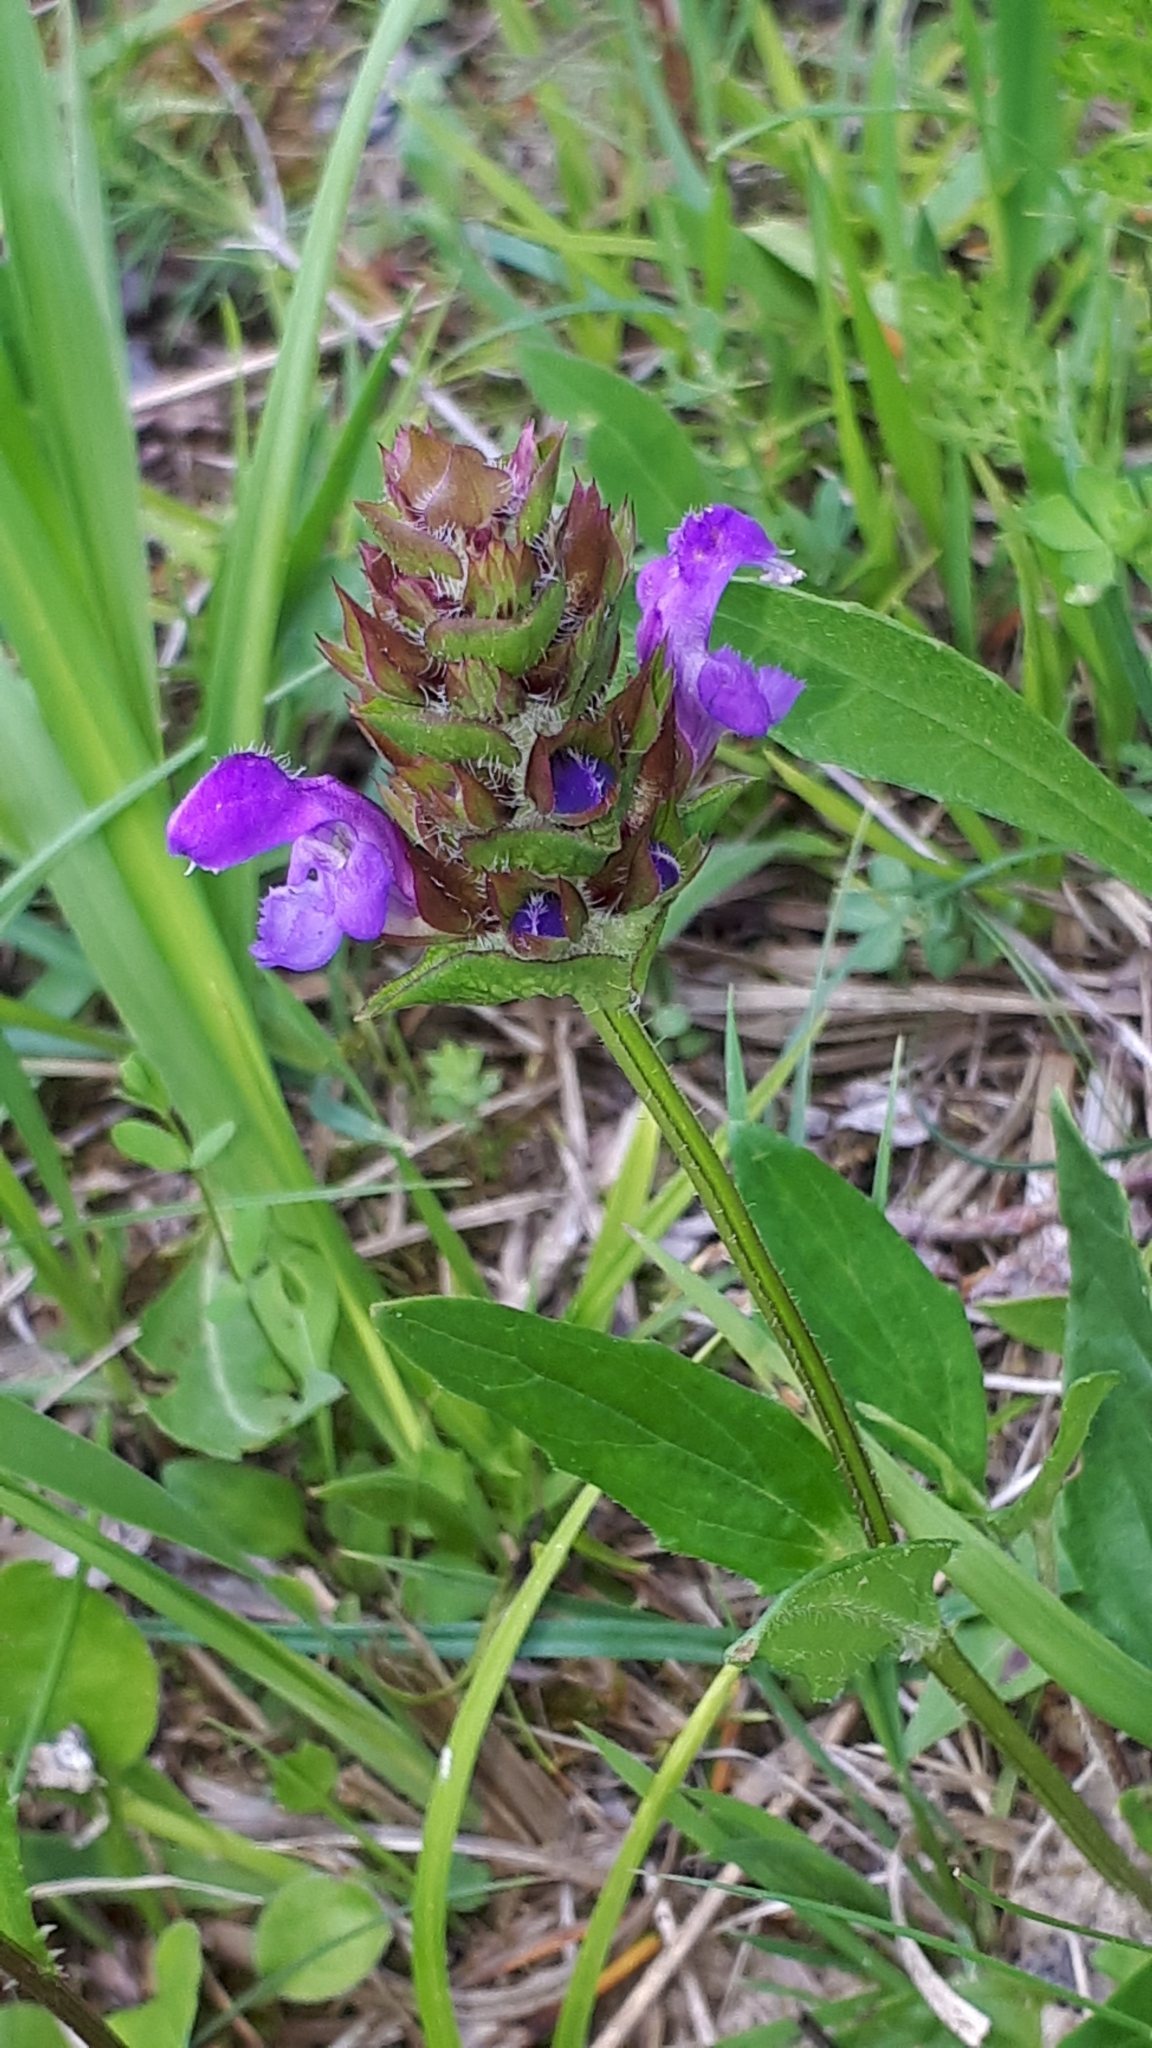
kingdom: Plantae
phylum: Tracheophyta
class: Magnoliopsida
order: Lamiales
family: Lamiaceae
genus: Prunella
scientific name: Prunella vulgaris
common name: Heal-all
